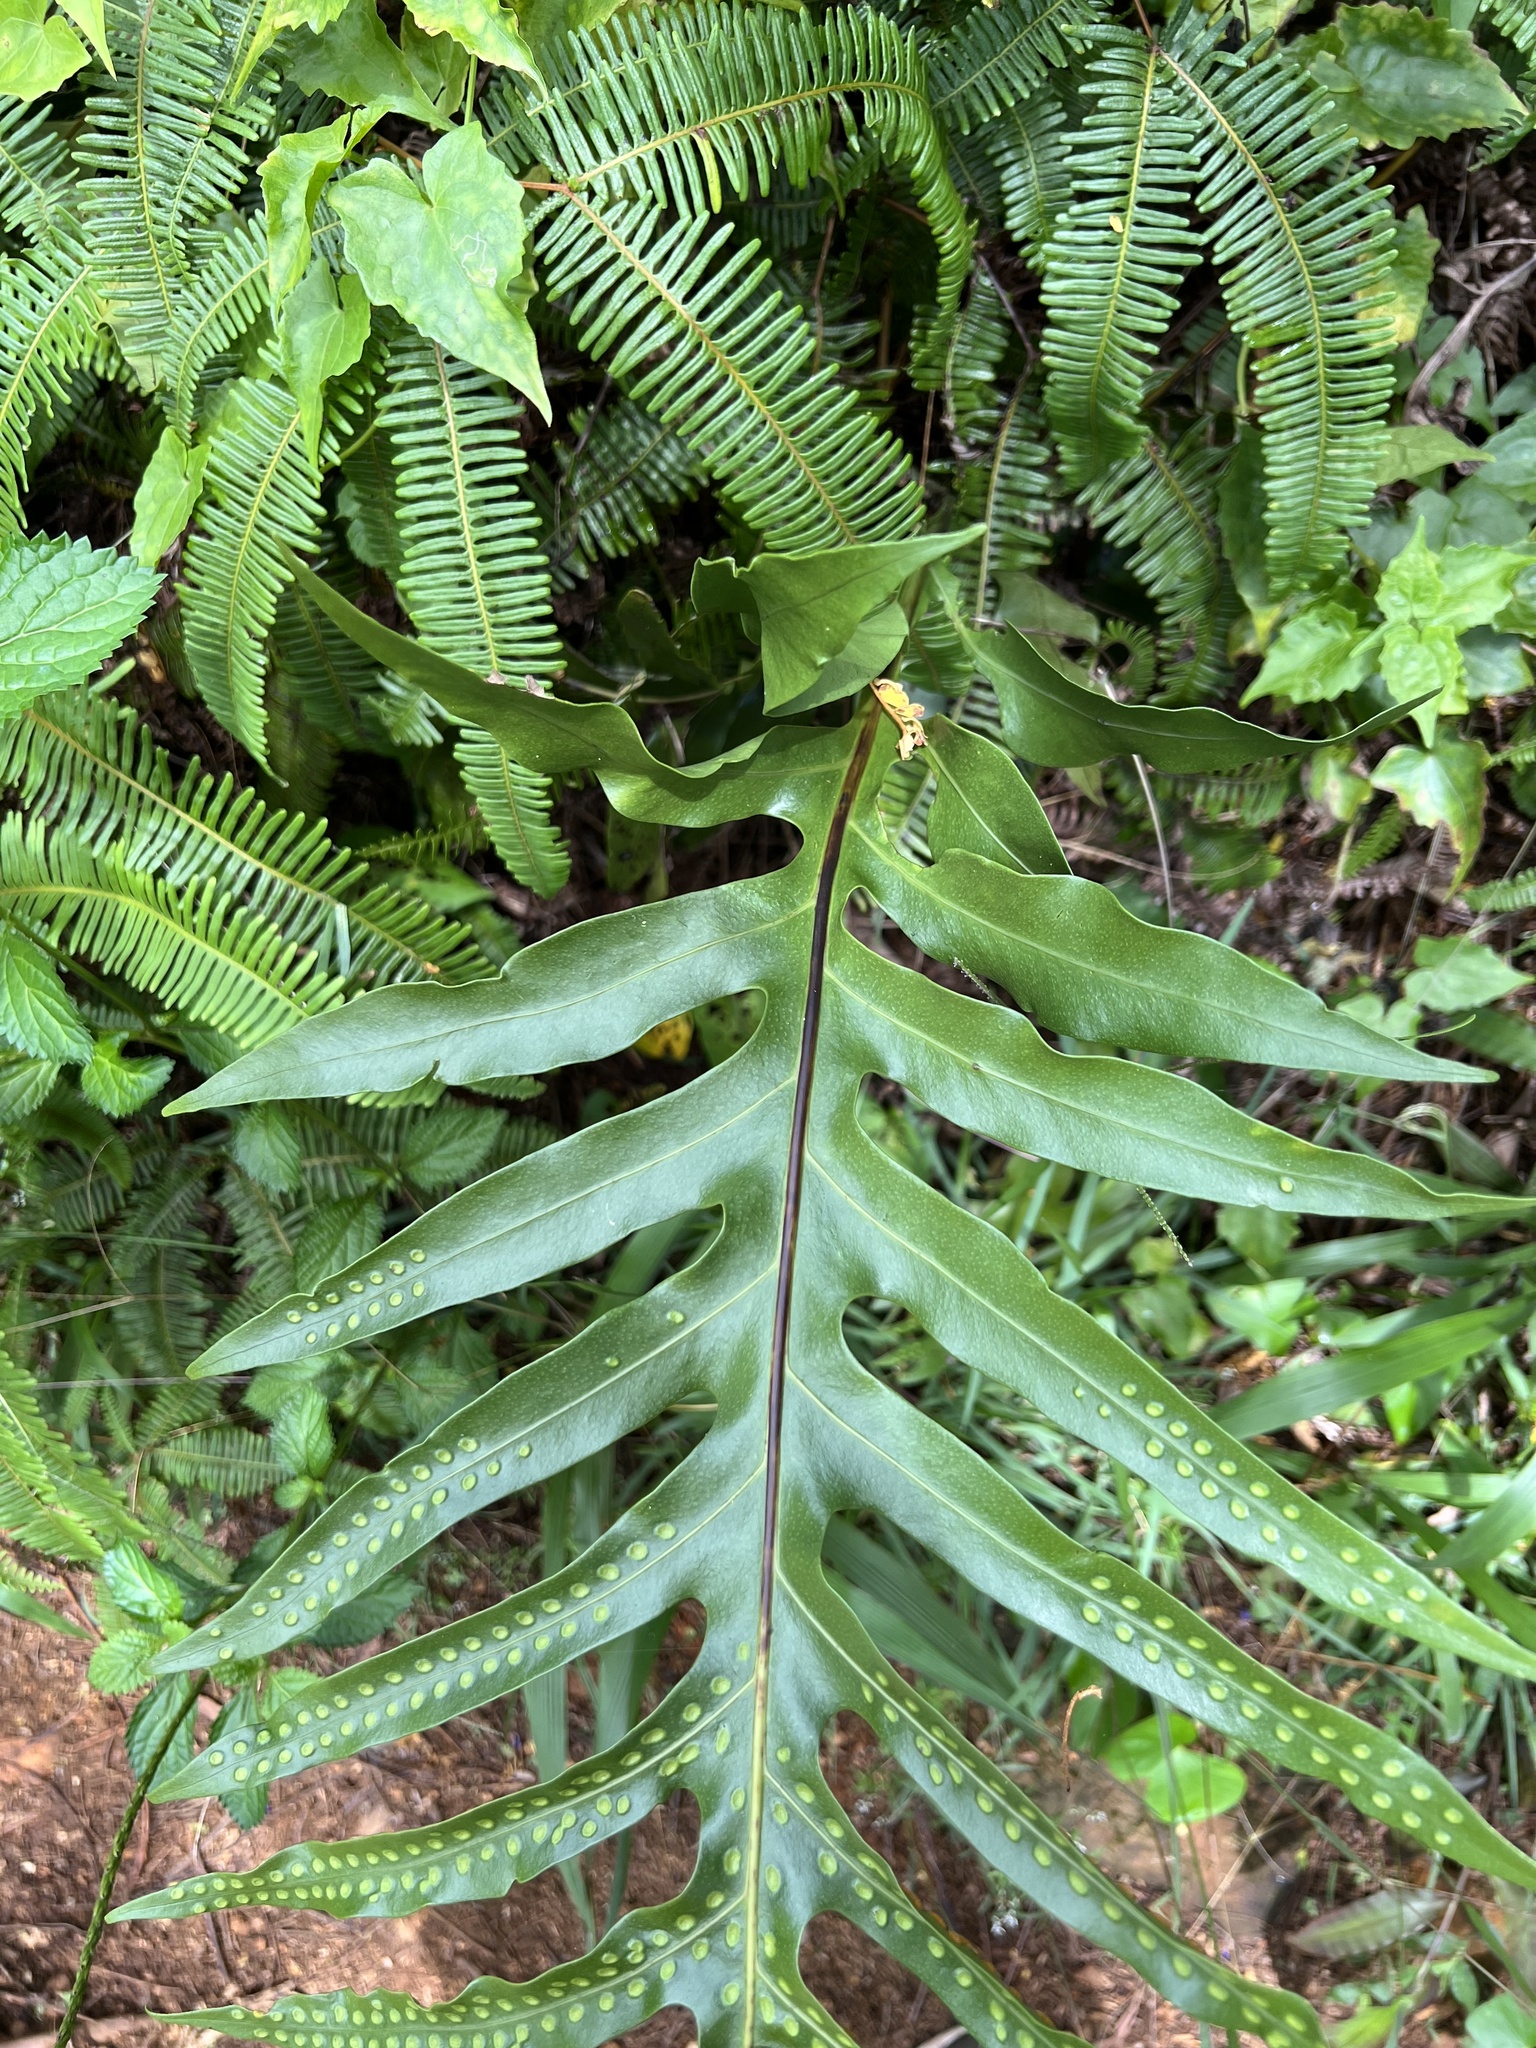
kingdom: Plantae
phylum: Tracheophyta
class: Polypodiopsida
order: Polypodiales
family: Polypodiaceae
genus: Microsorum
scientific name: Microsorum grossum
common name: Musk fern
